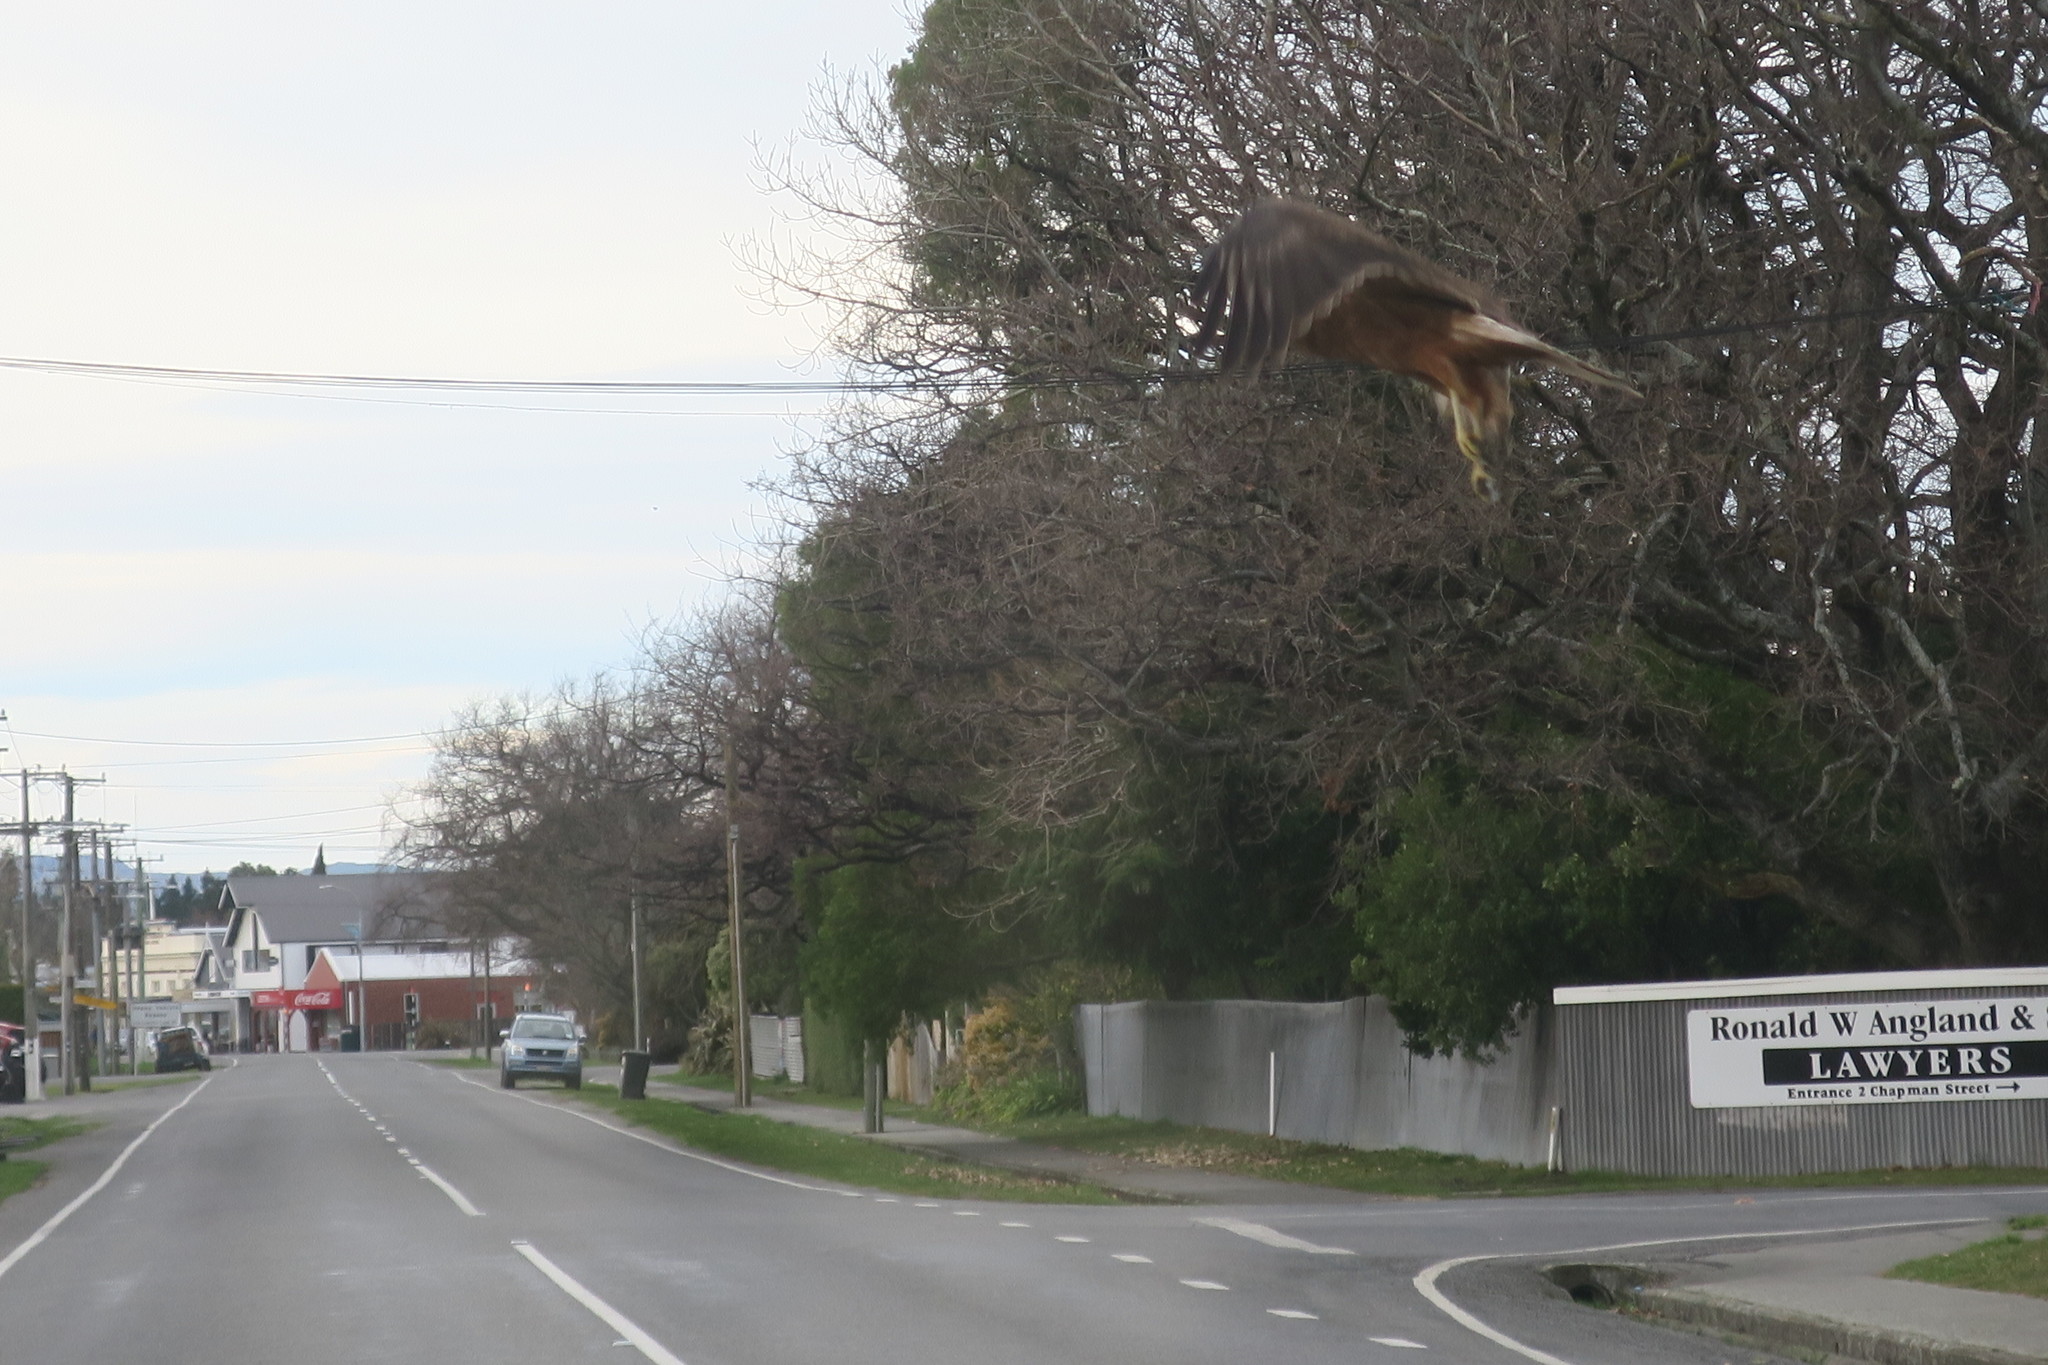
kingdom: Animalia
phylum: Chordata
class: Aves
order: Accipitriformes
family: Accipitridae
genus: Circus
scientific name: Circus approximans
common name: Swamp harrier
